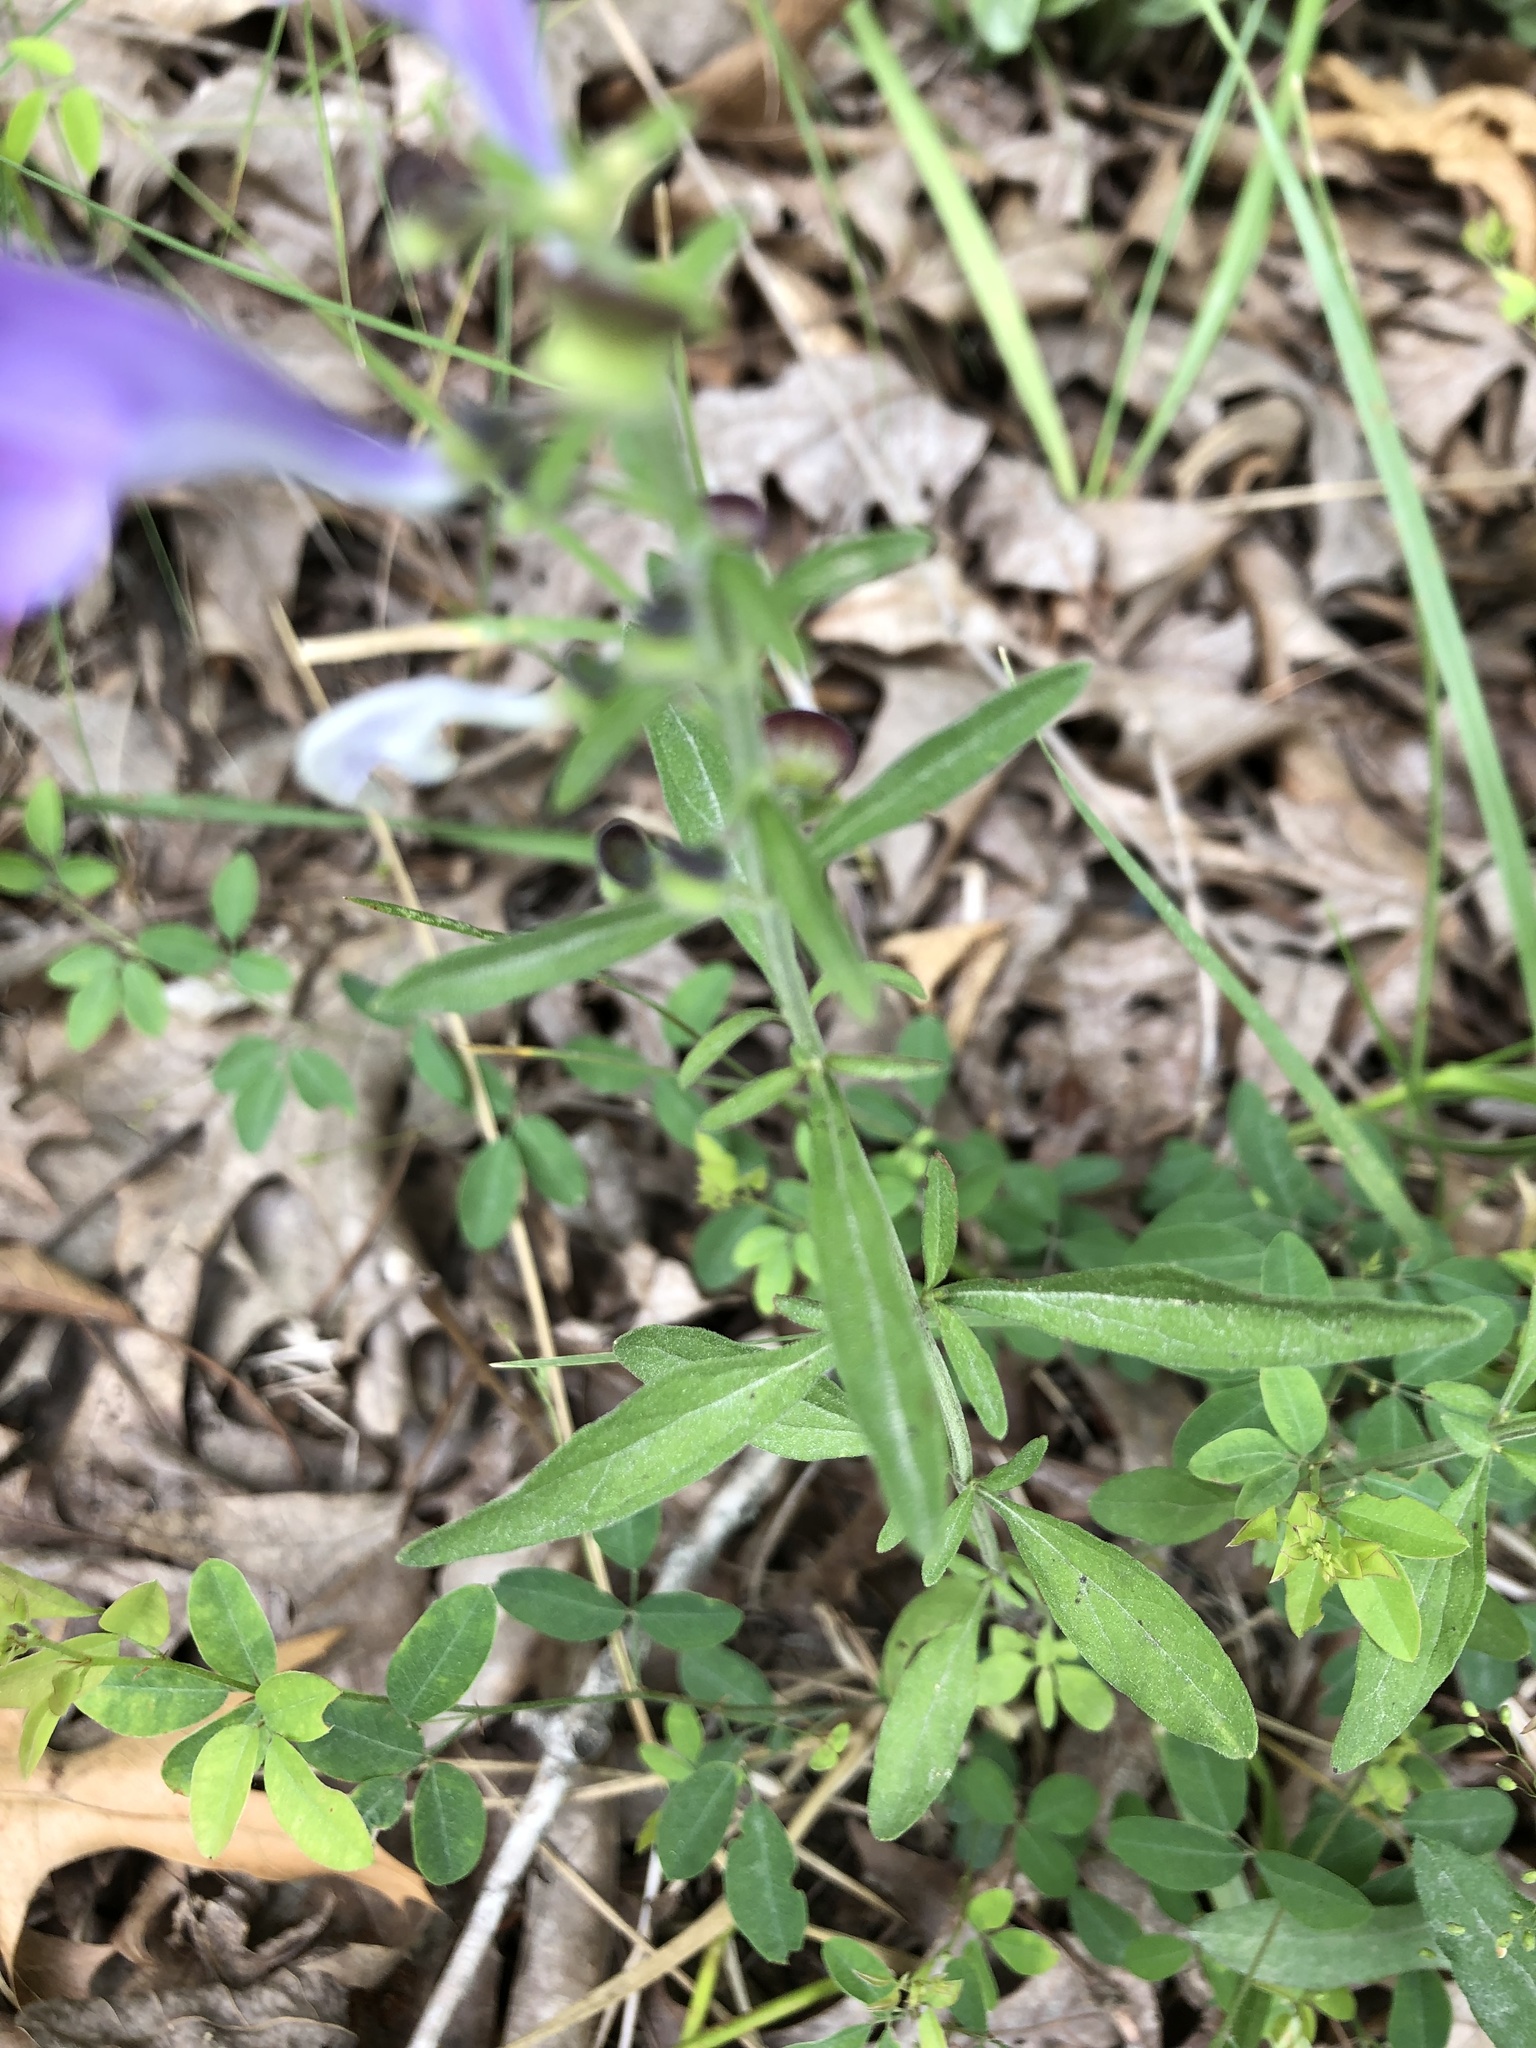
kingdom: Plantae
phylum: Tracheophyta
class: Magnoliopsida
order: Lamiales
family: Lamiaceae
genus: Scutellaria
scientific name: Scutellaria integrifolia
